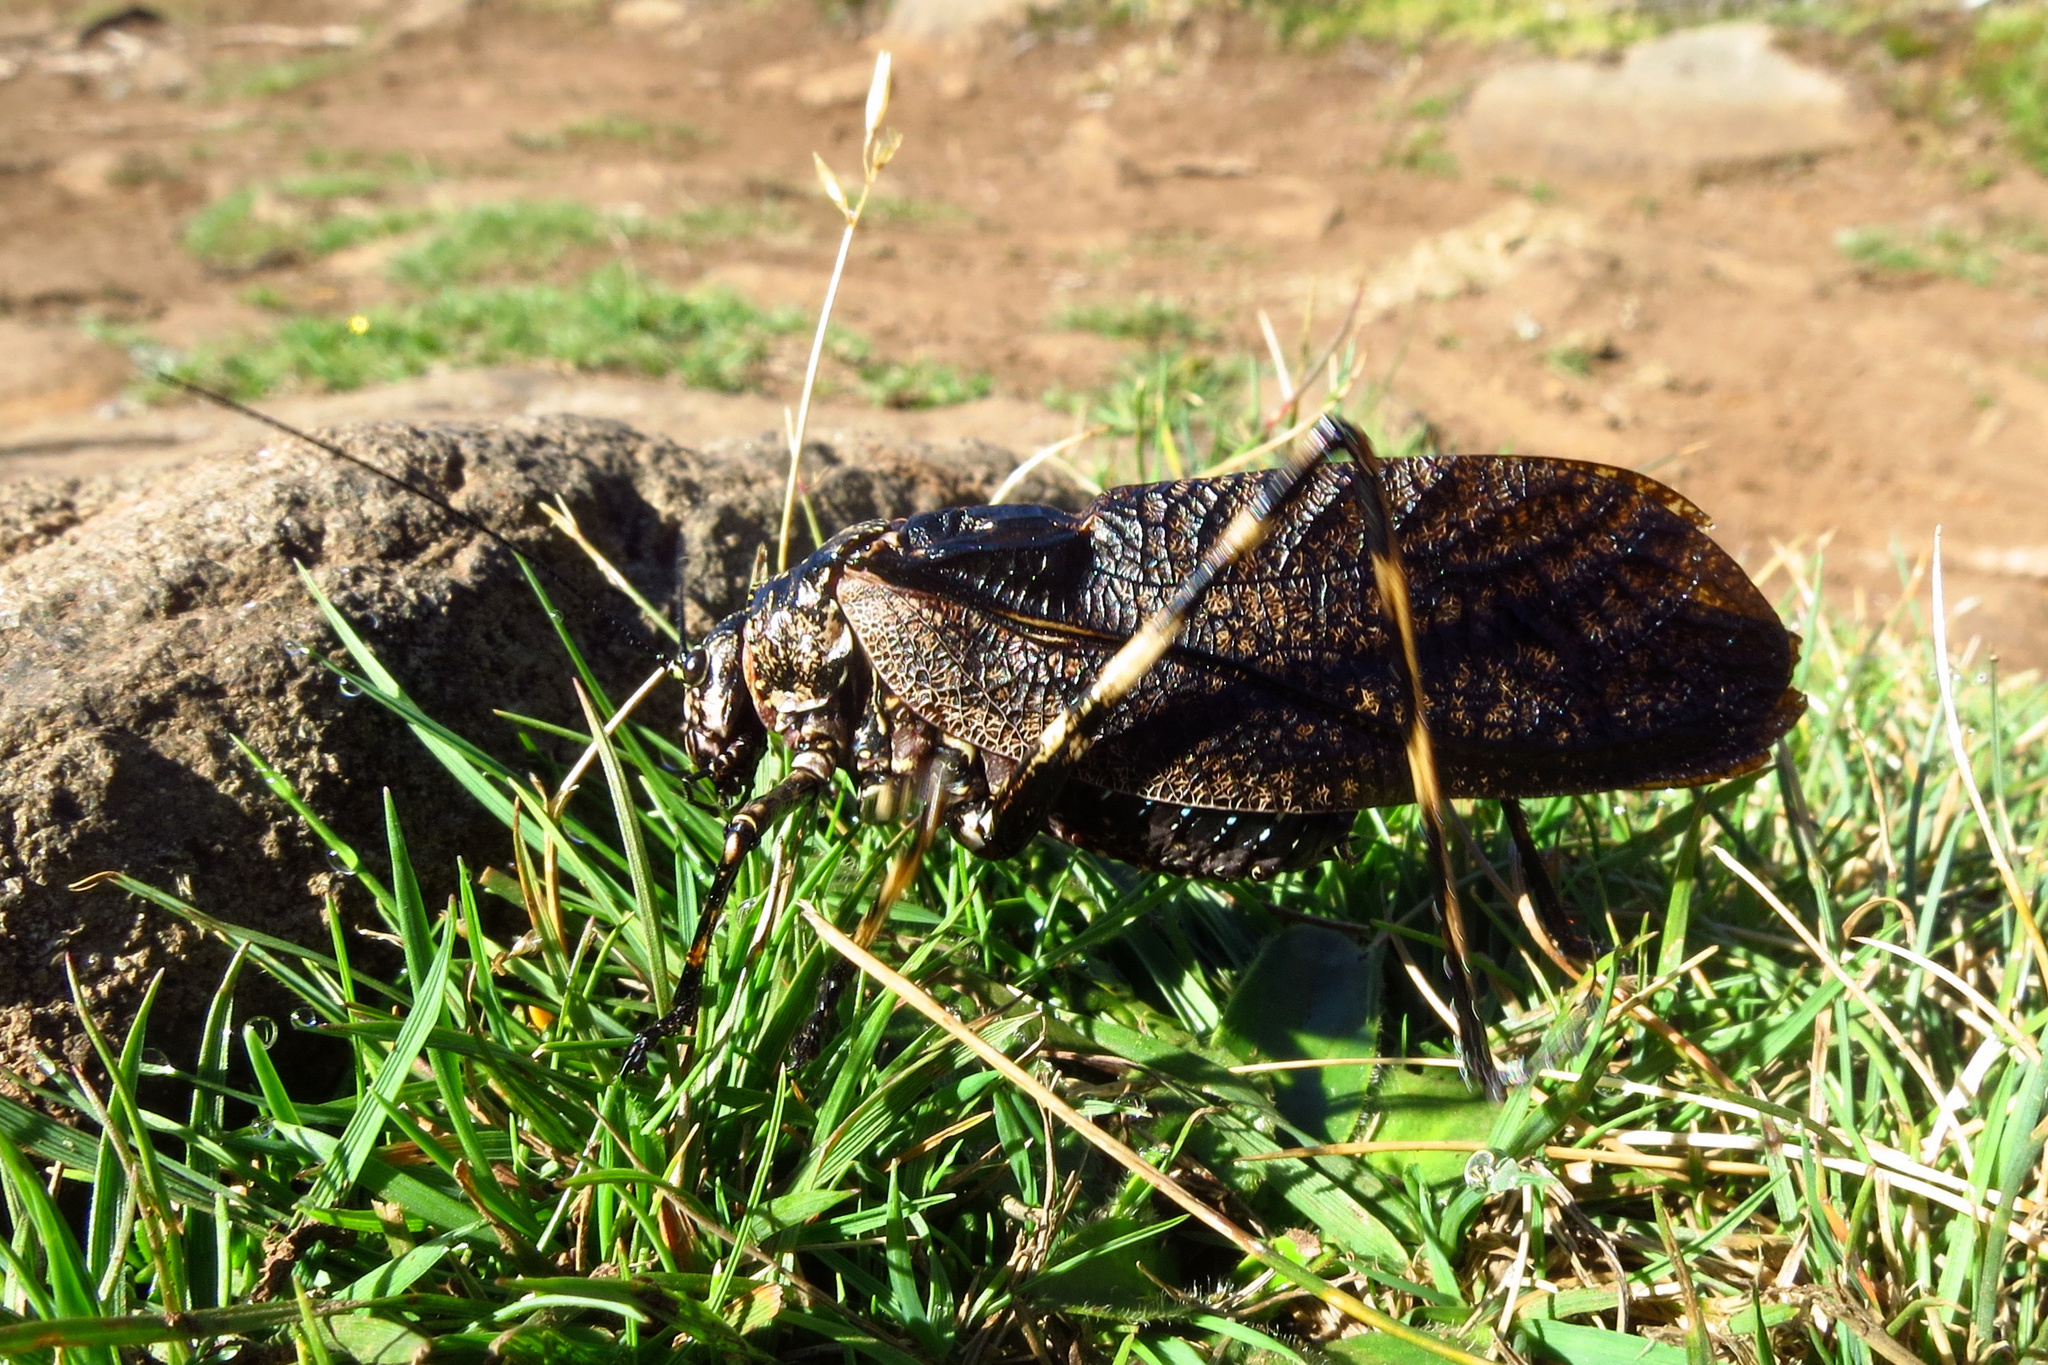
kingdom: Animalia
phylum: Arthropoda
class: Insecta
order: Orthoptera
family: Tettigoniidae
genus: Acripeza
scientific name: Acripeza reticulata
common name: Mountain katydid
